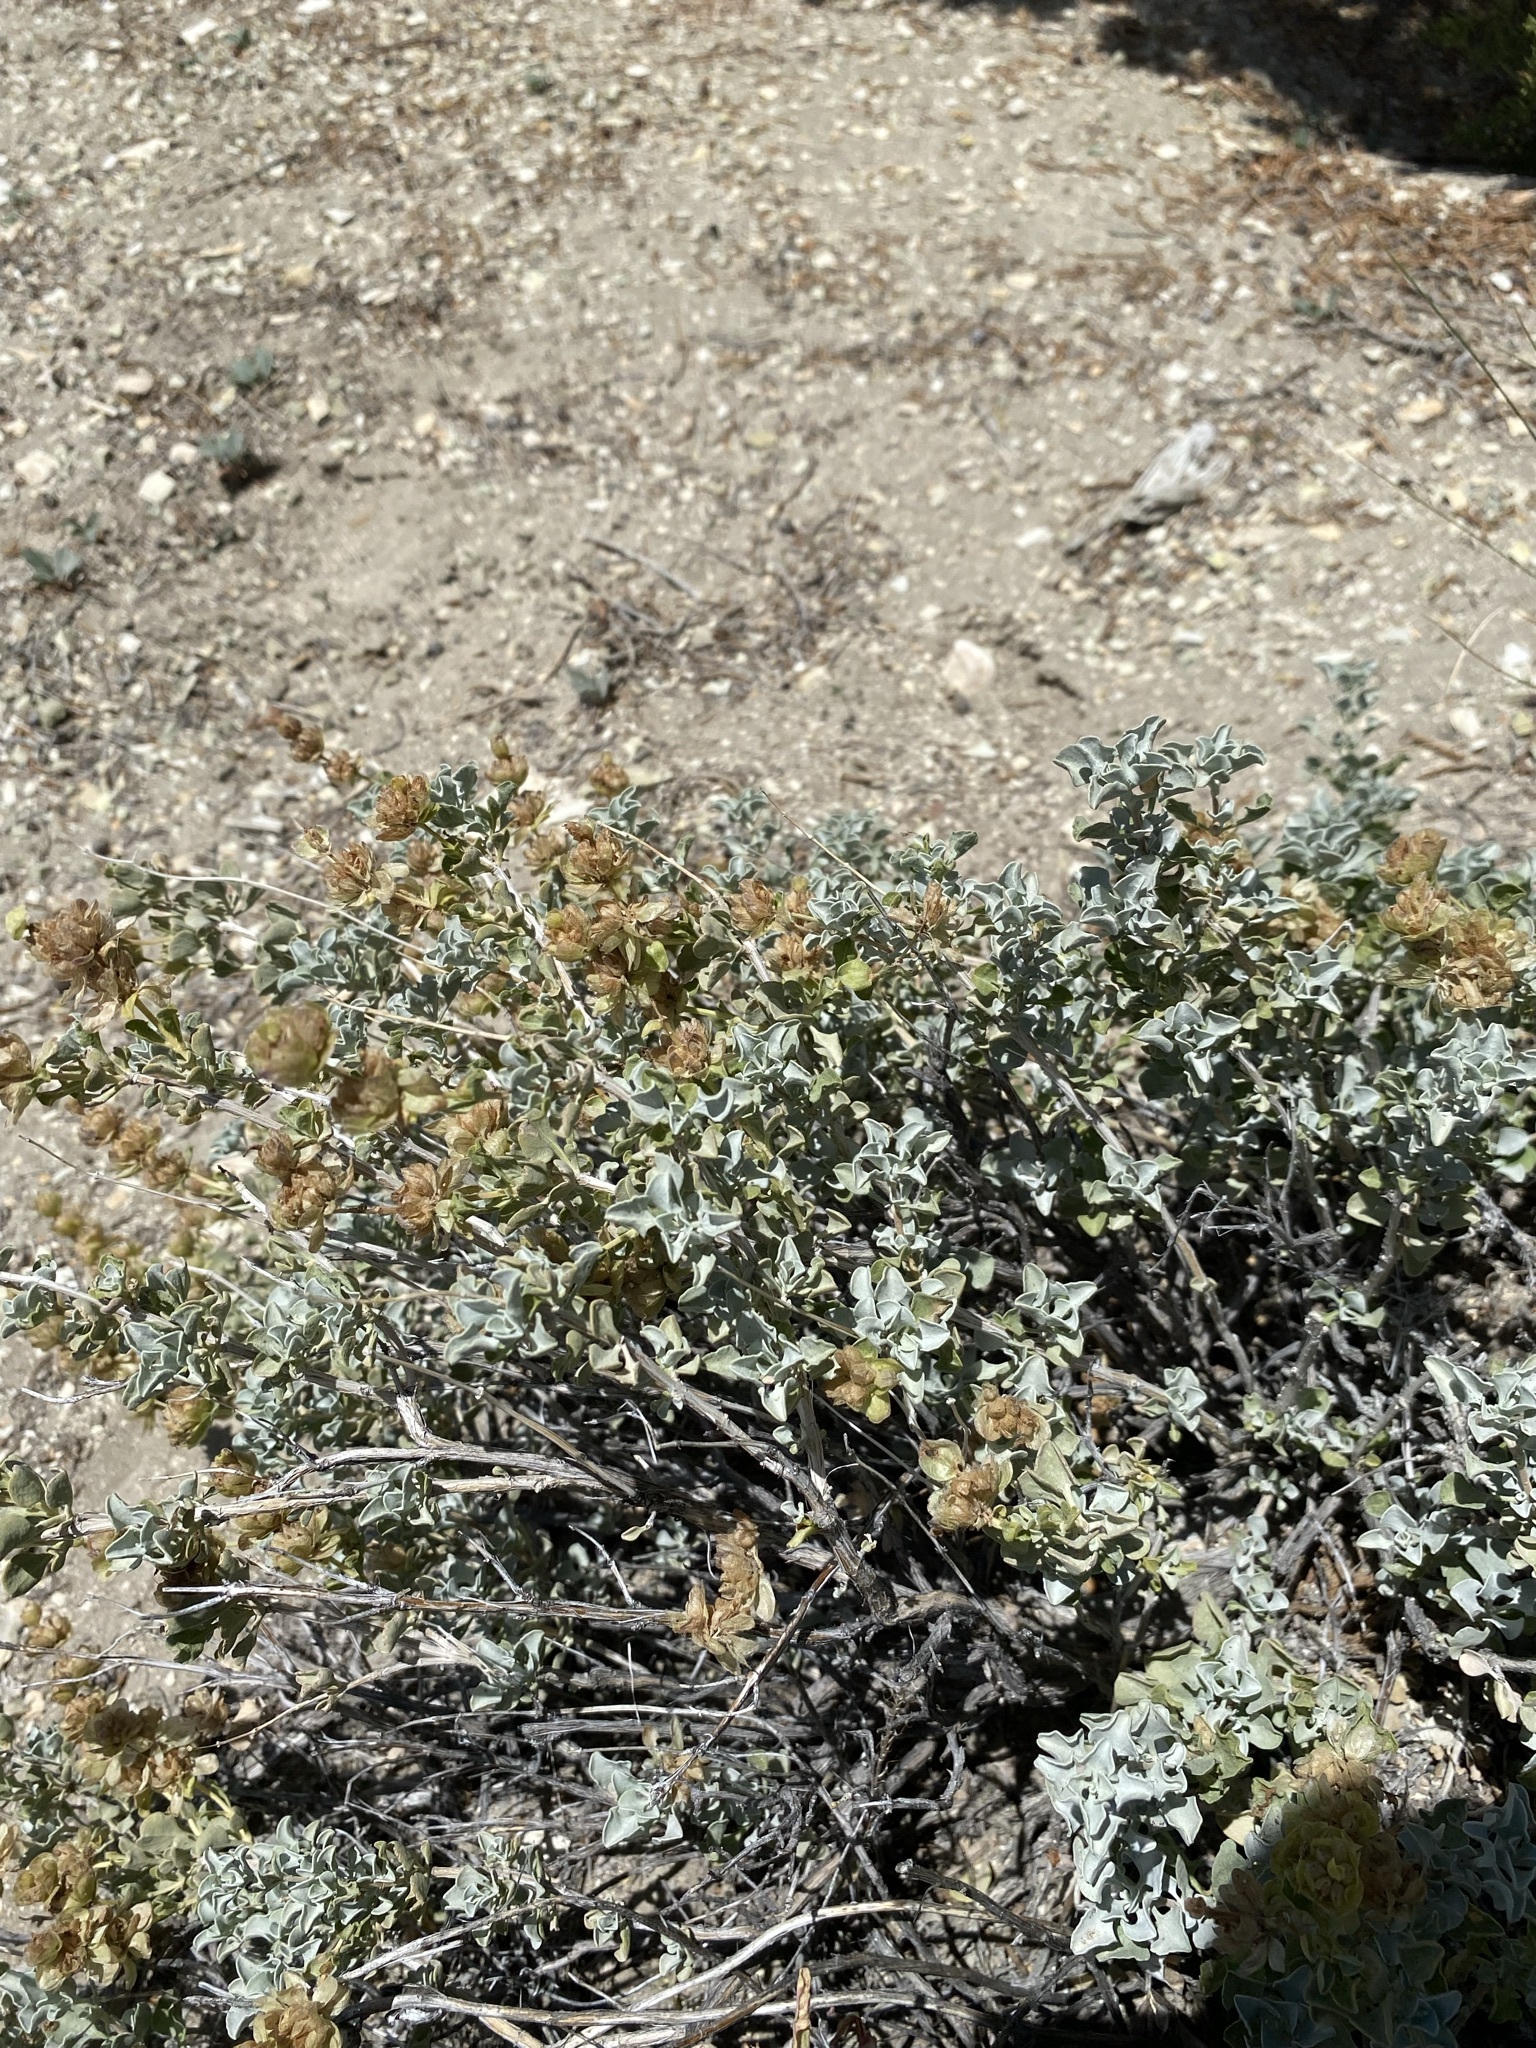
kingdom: Plantae
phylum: Tracheophyta
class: Magnoliopsida
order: Lamiales
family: Lamiaceae
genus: Salvia
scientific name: Salvia dorrii
